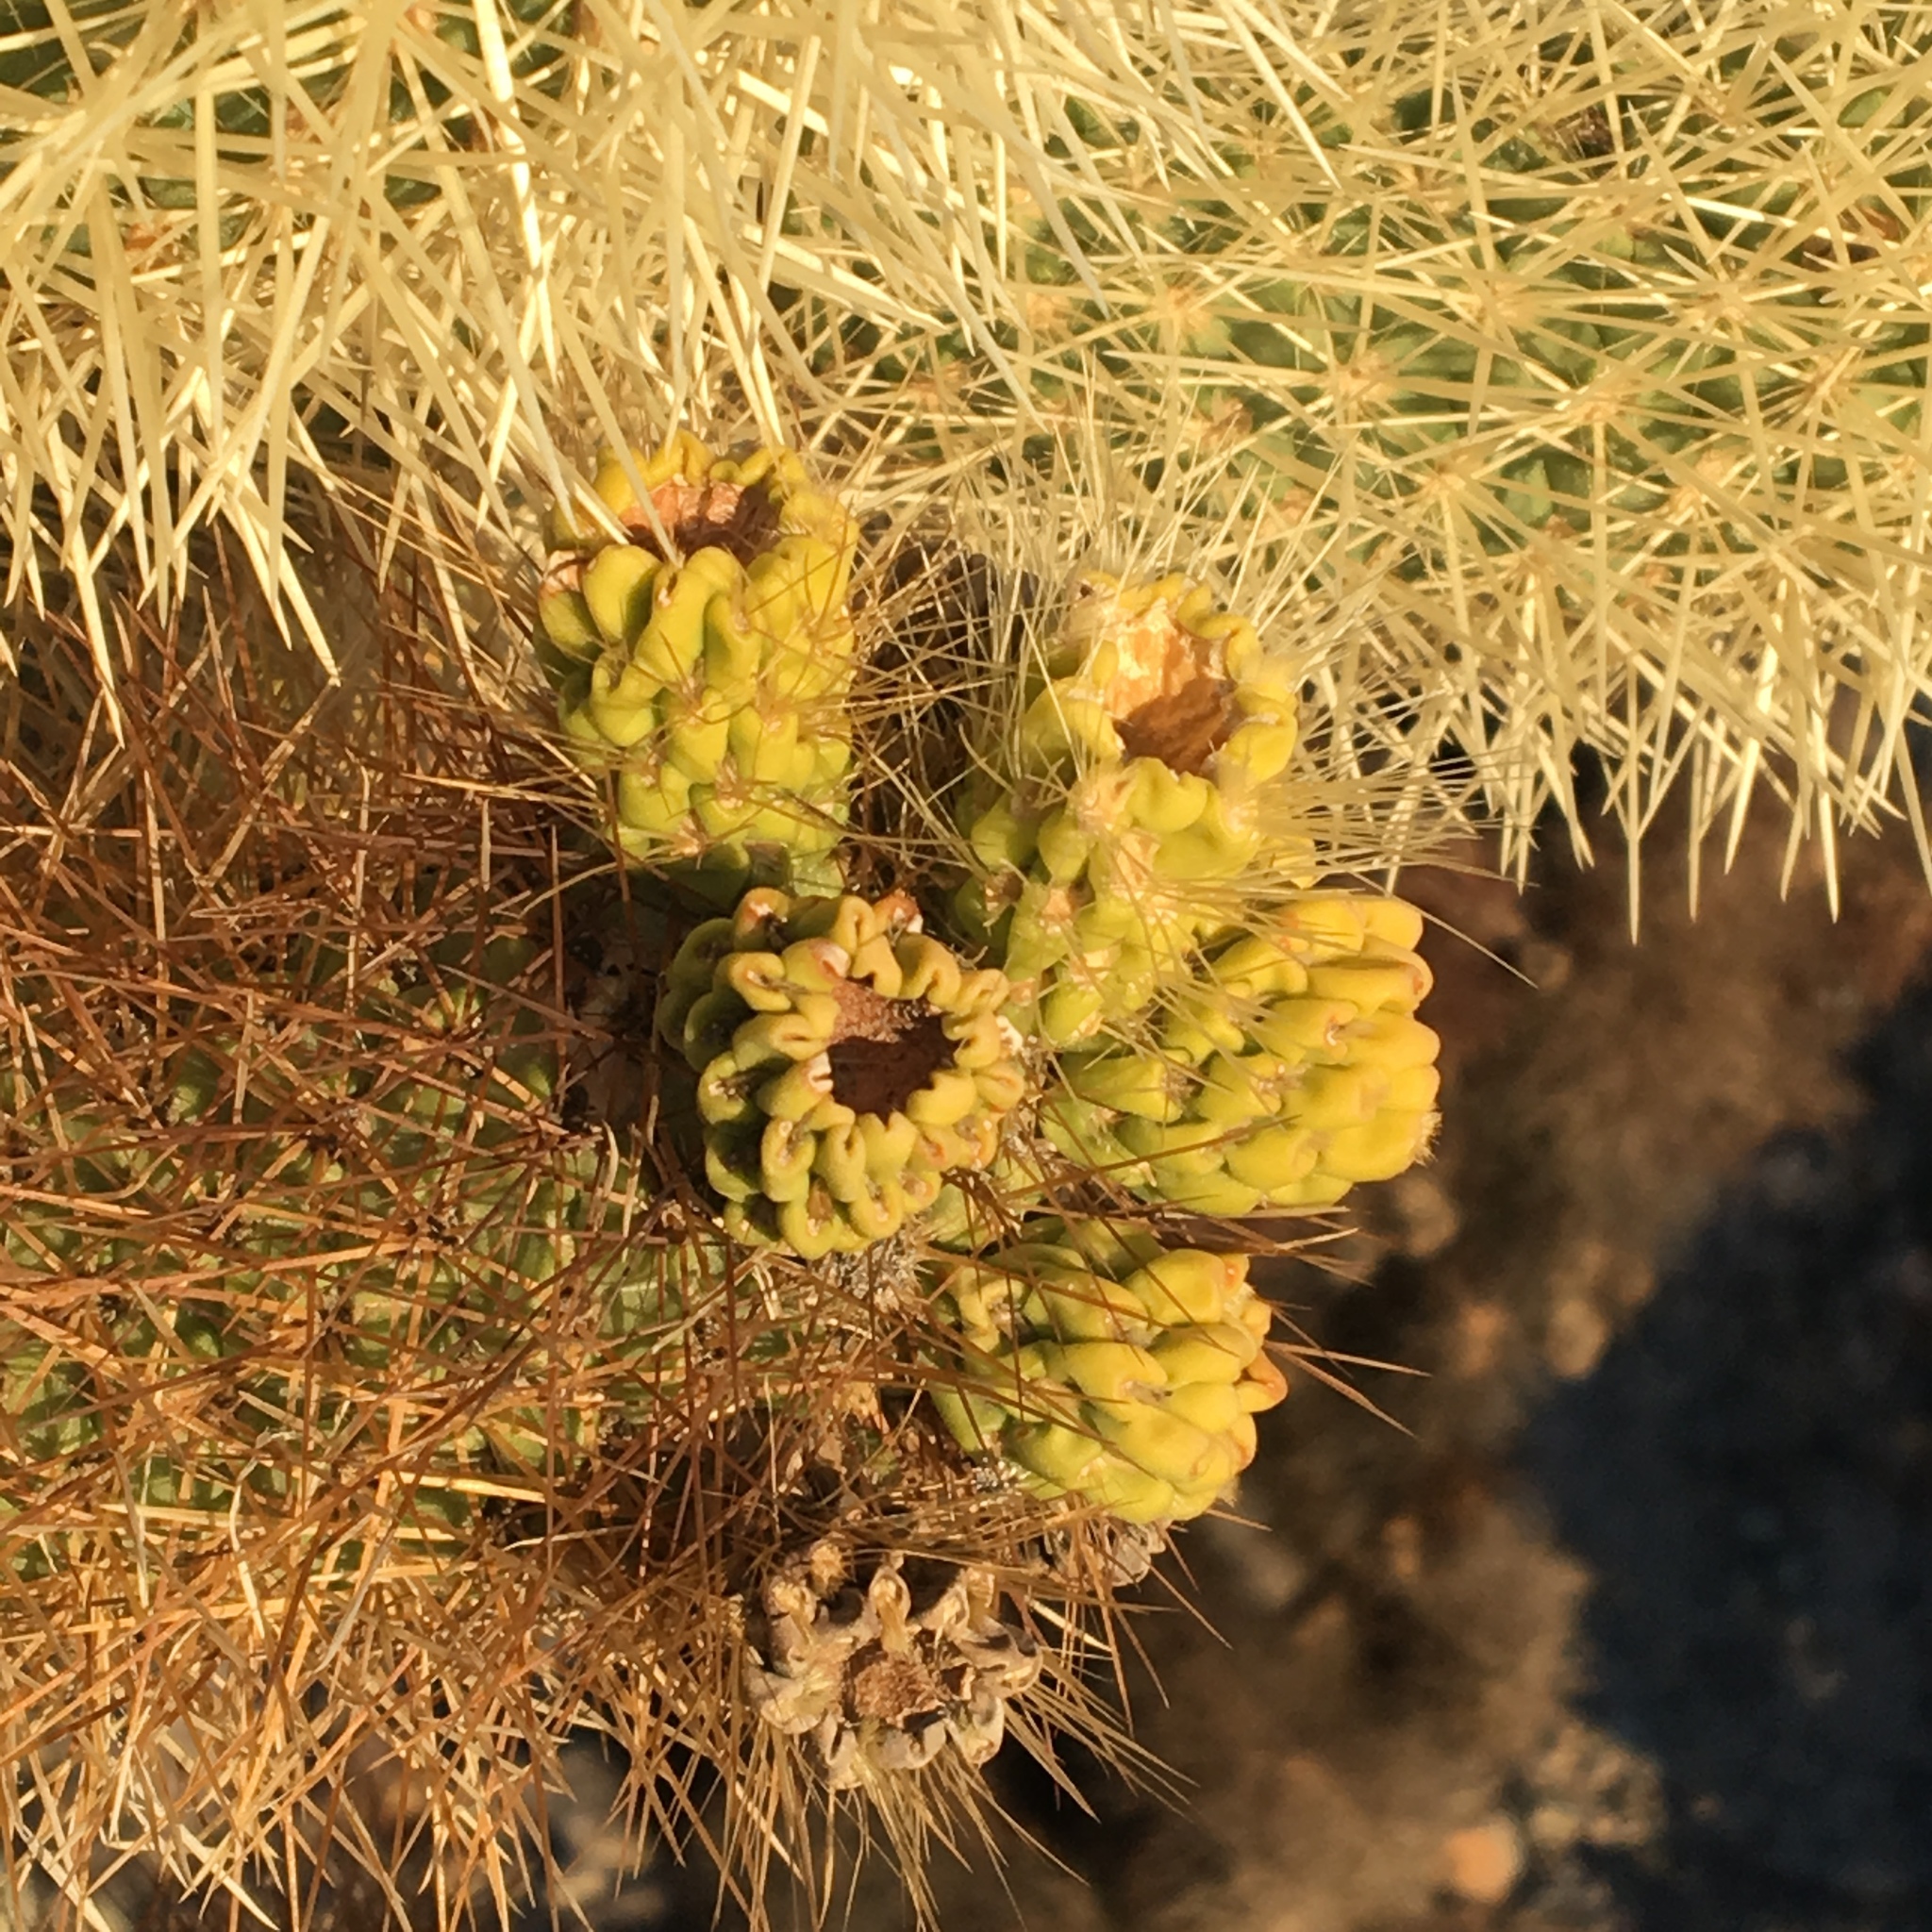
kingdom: Plantae
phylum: Tracheophyta
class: Magnoliopsida
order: Caryophyllales
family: Cactaceae
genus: Cylindropuntia
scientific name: Cylindropuntia fosbergii
